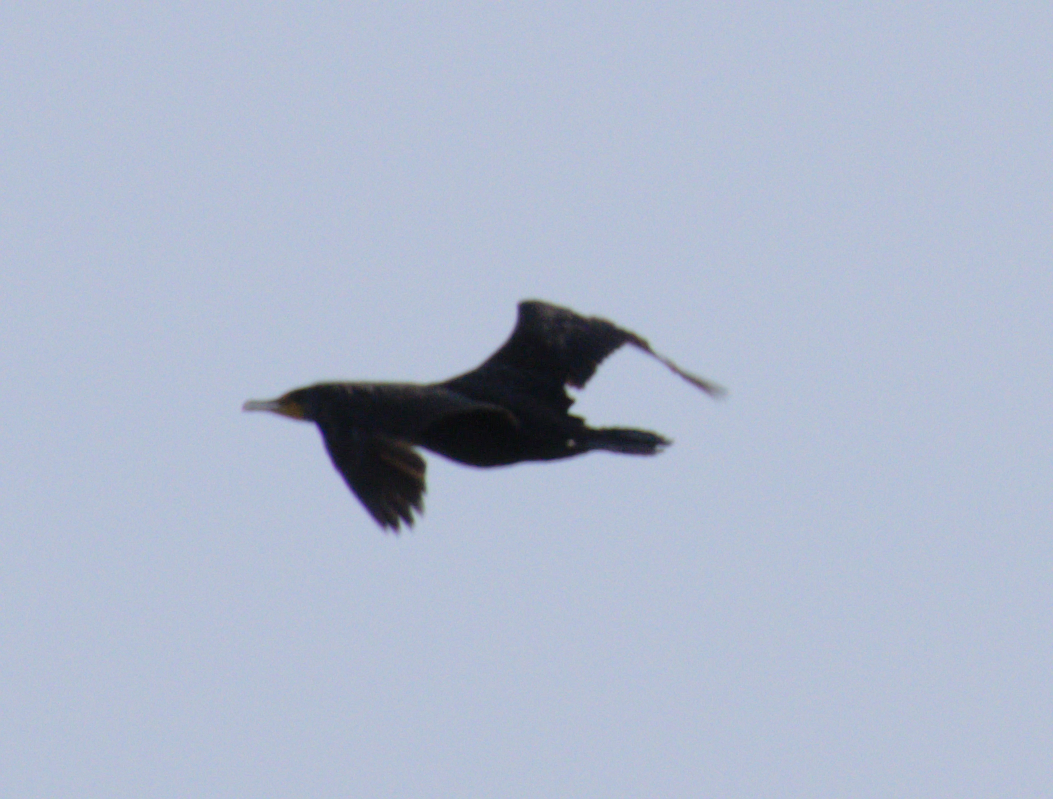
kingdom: Animalia
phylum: Chordata
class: Aves
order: Suliformes
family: Phalacrocoracidae
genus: Phalacrocorax
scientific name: Phalacrocorax auritus
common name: Double-crested cormorant
